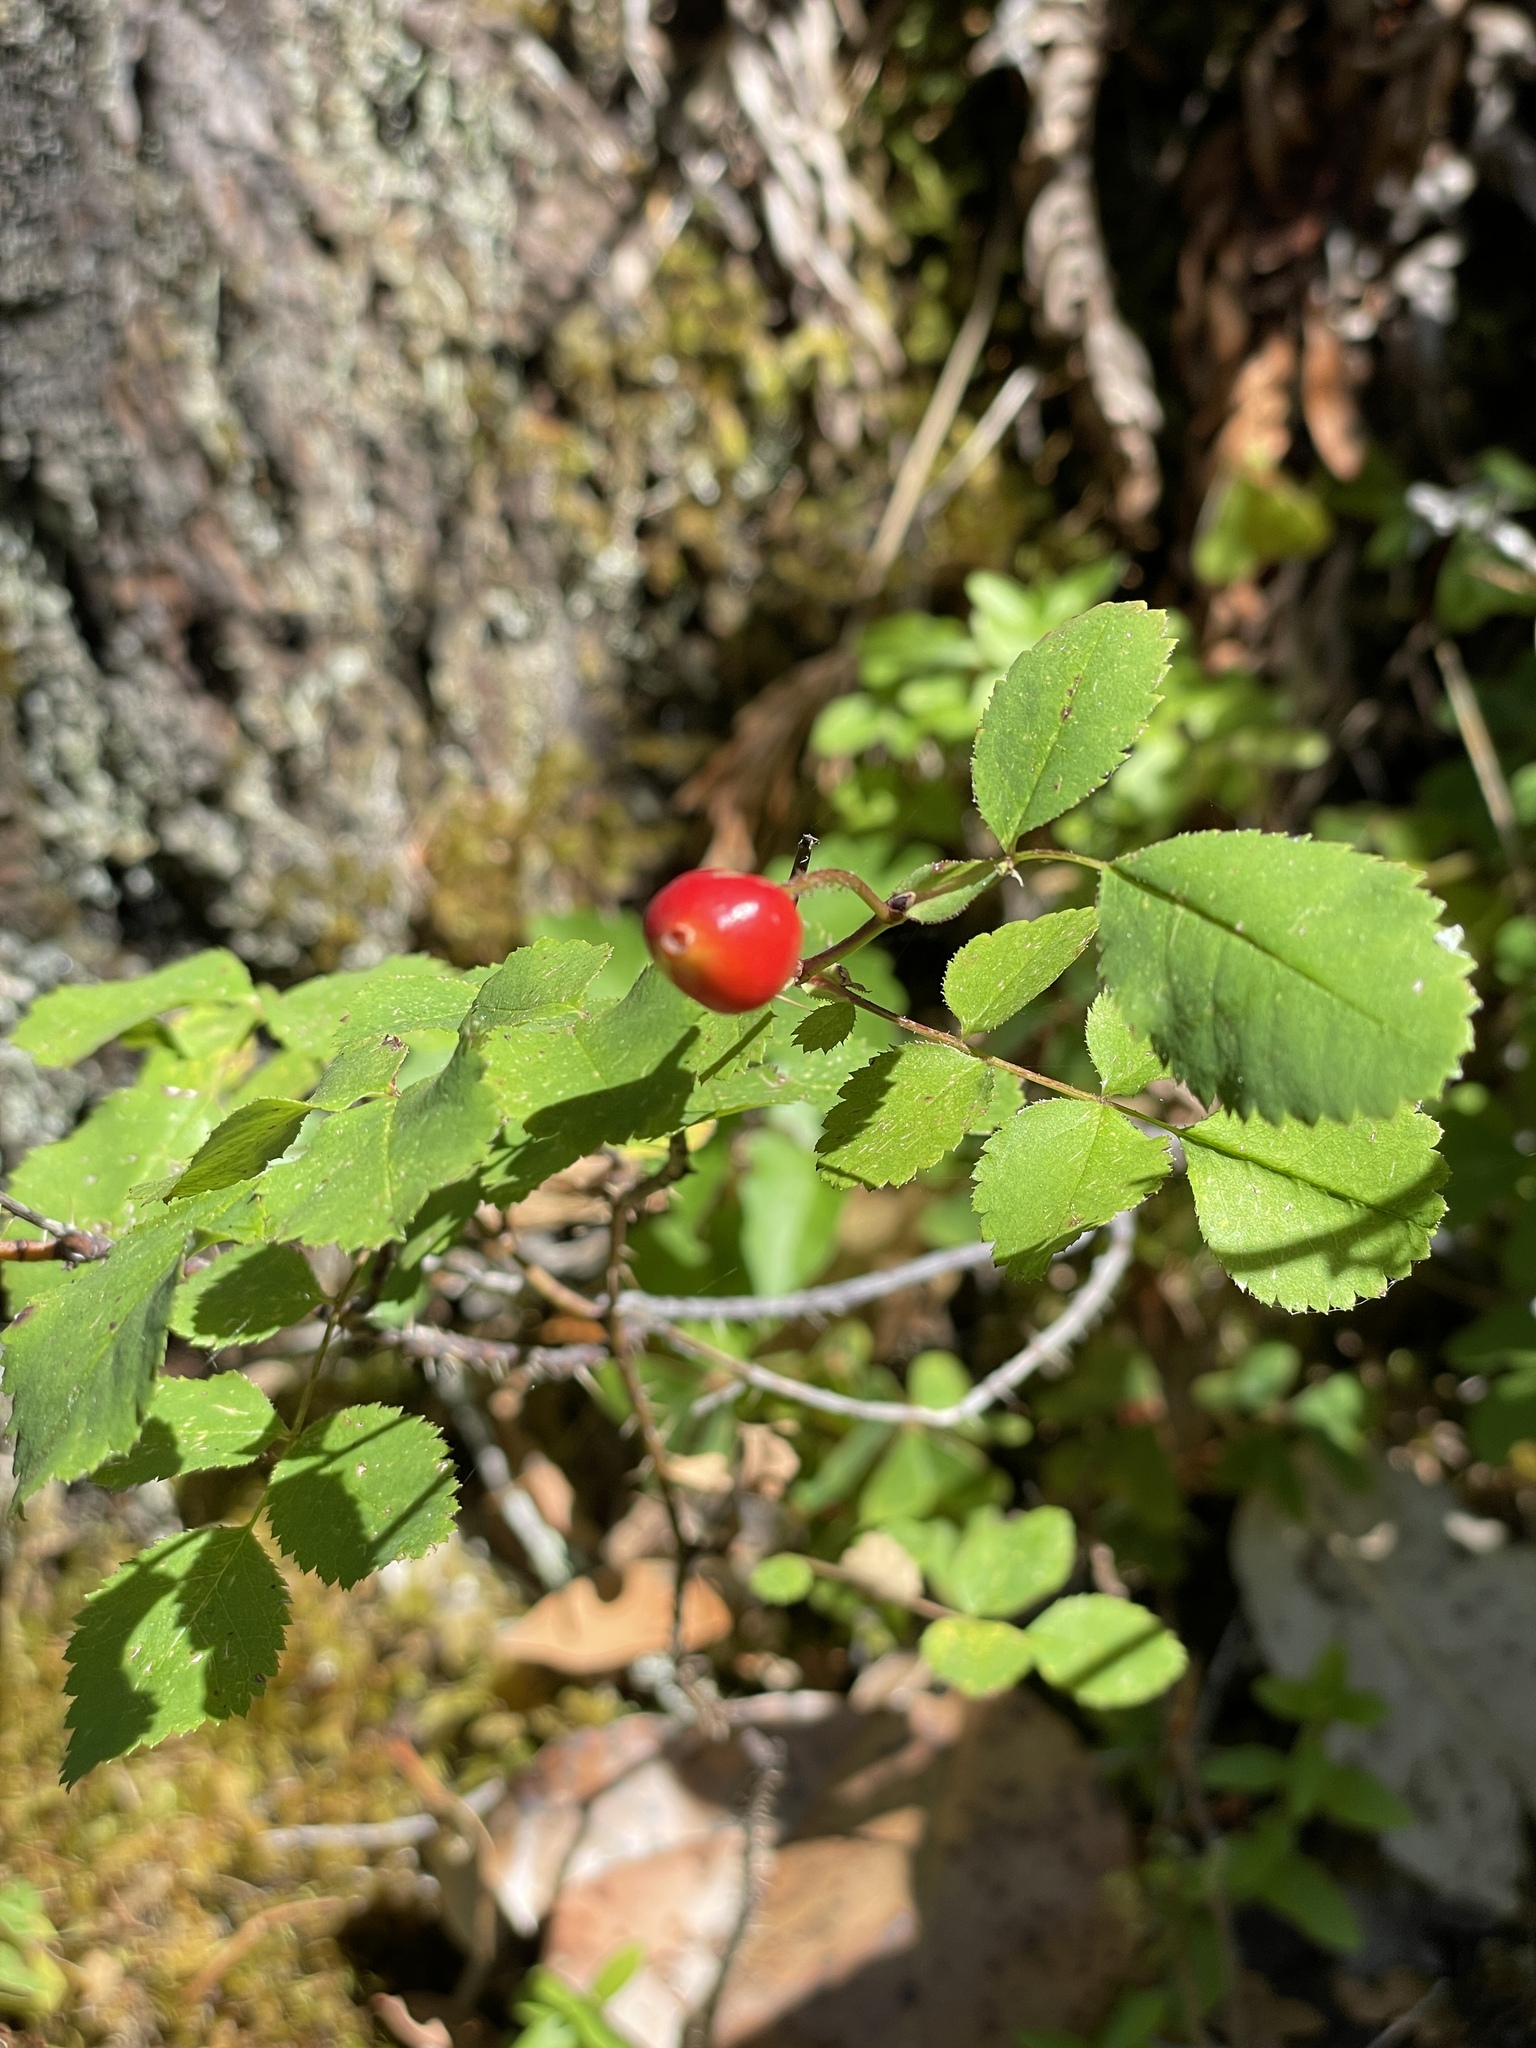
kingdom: Plantae
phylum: Tracheophyta
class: Magnoliopsida
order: Rosales
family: Rosaceae
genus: Rosa
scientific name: Rosa gymnocarpa
